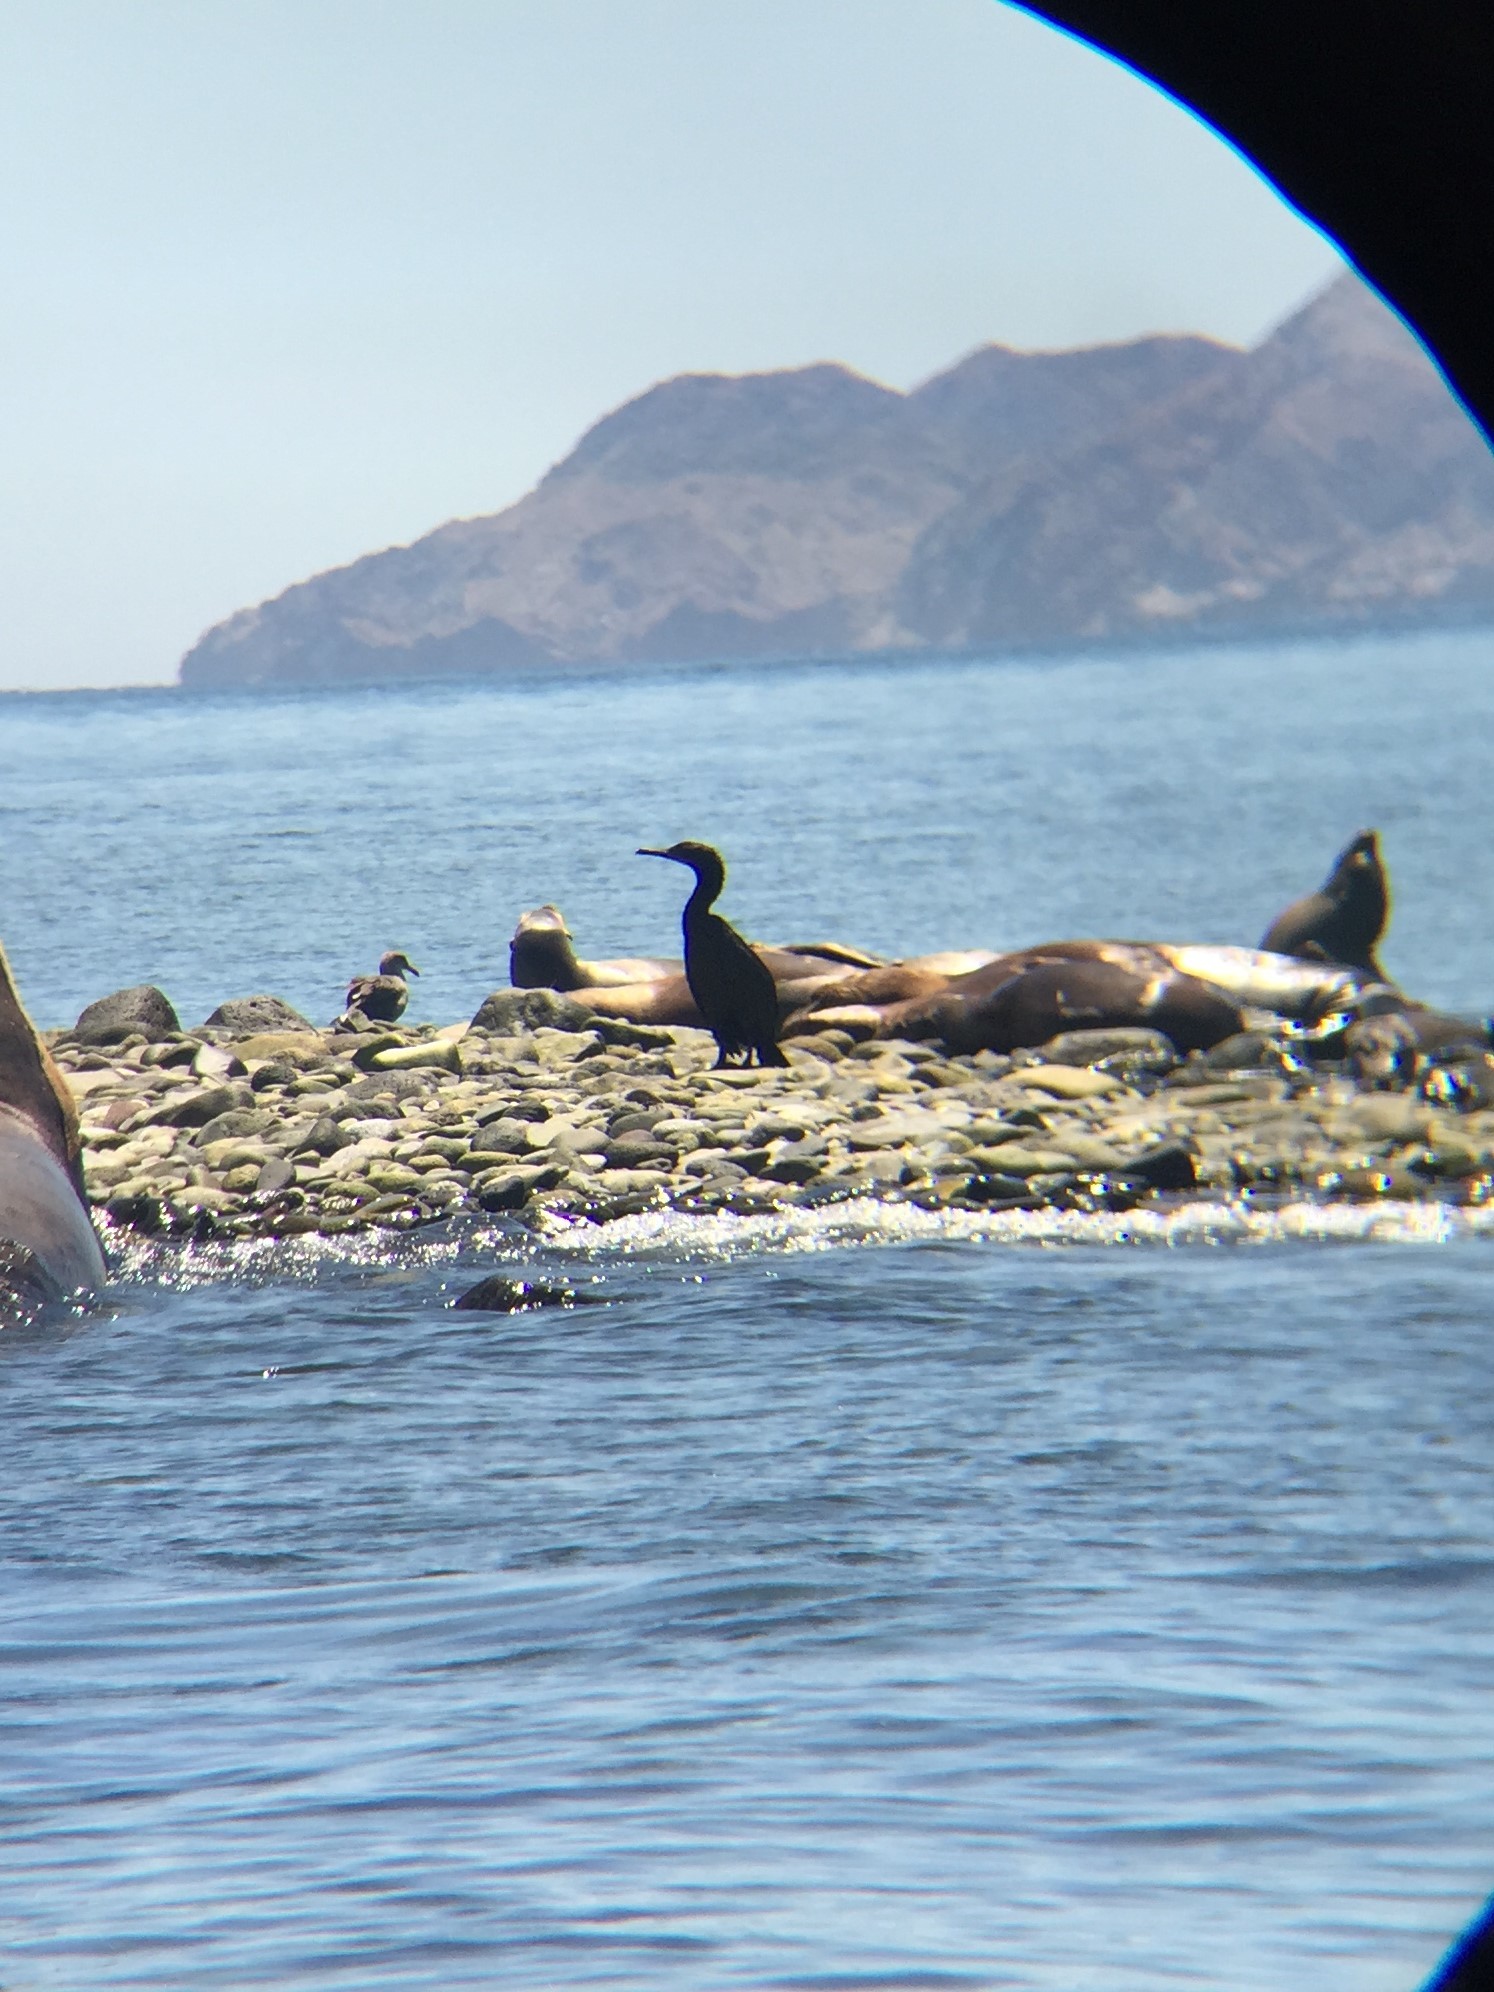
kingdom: Animalia
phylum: Chordata
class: Aves
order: Suliformes
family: Phalacrocoracidae
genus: Urile
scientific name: Urile penicillatus
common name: Brandt's cormorant
